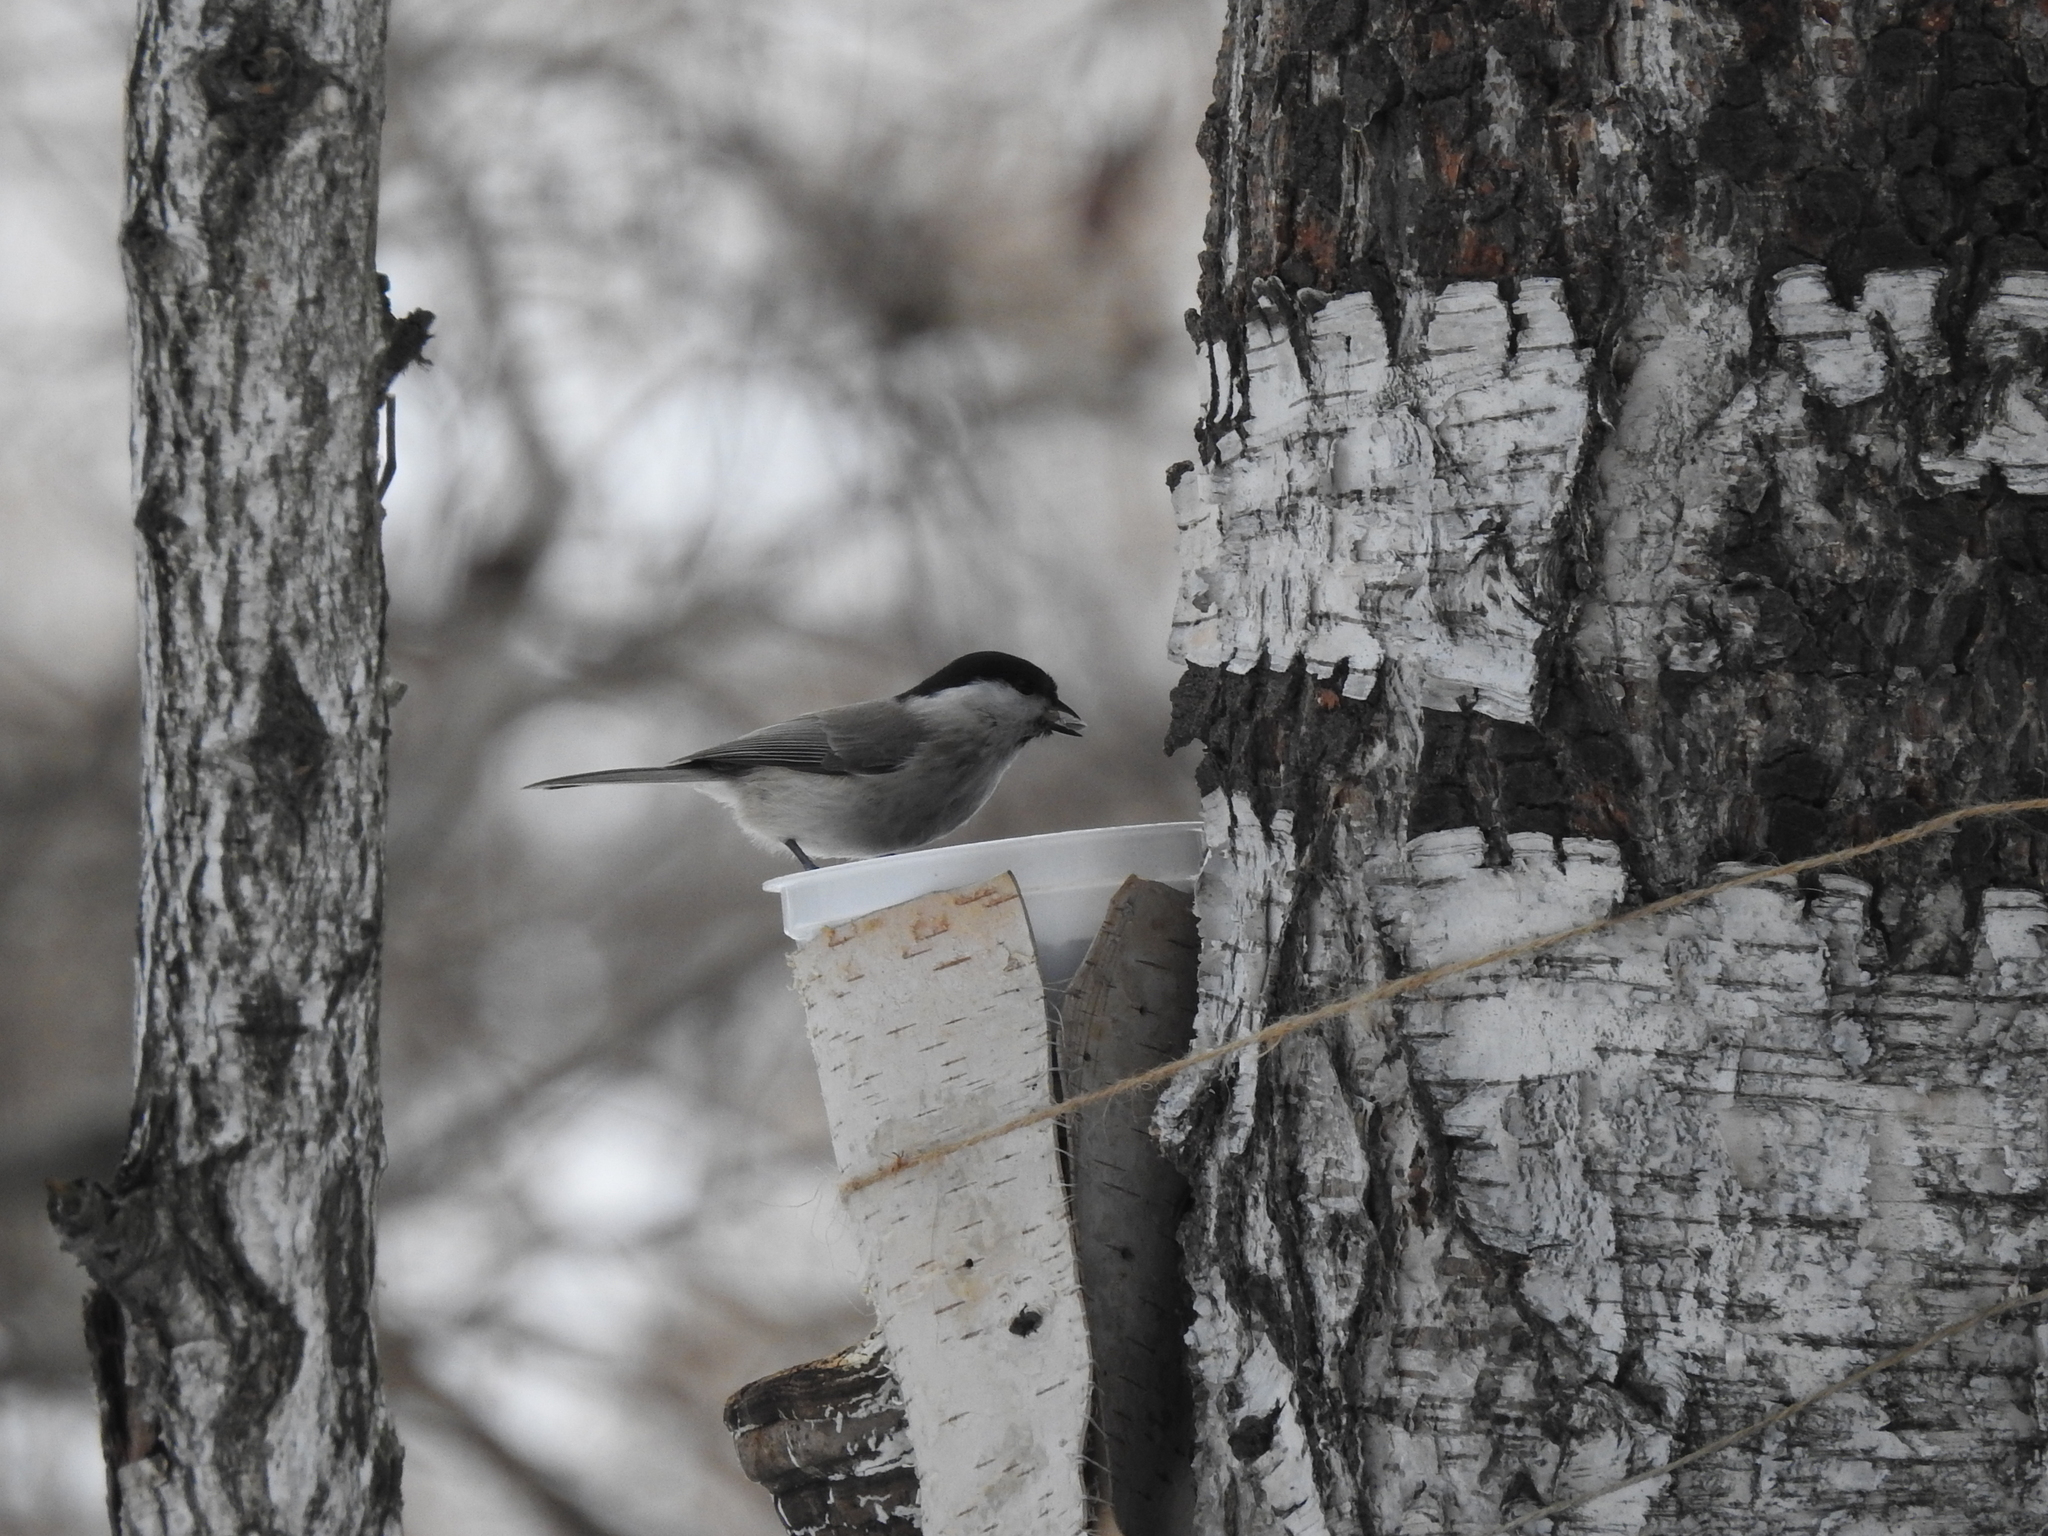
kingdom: Animalia
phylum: Chordata
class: Aves
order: Passeriformes
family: Paridae
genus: Poecile
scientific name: Poecile montanus
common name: Willow tit
